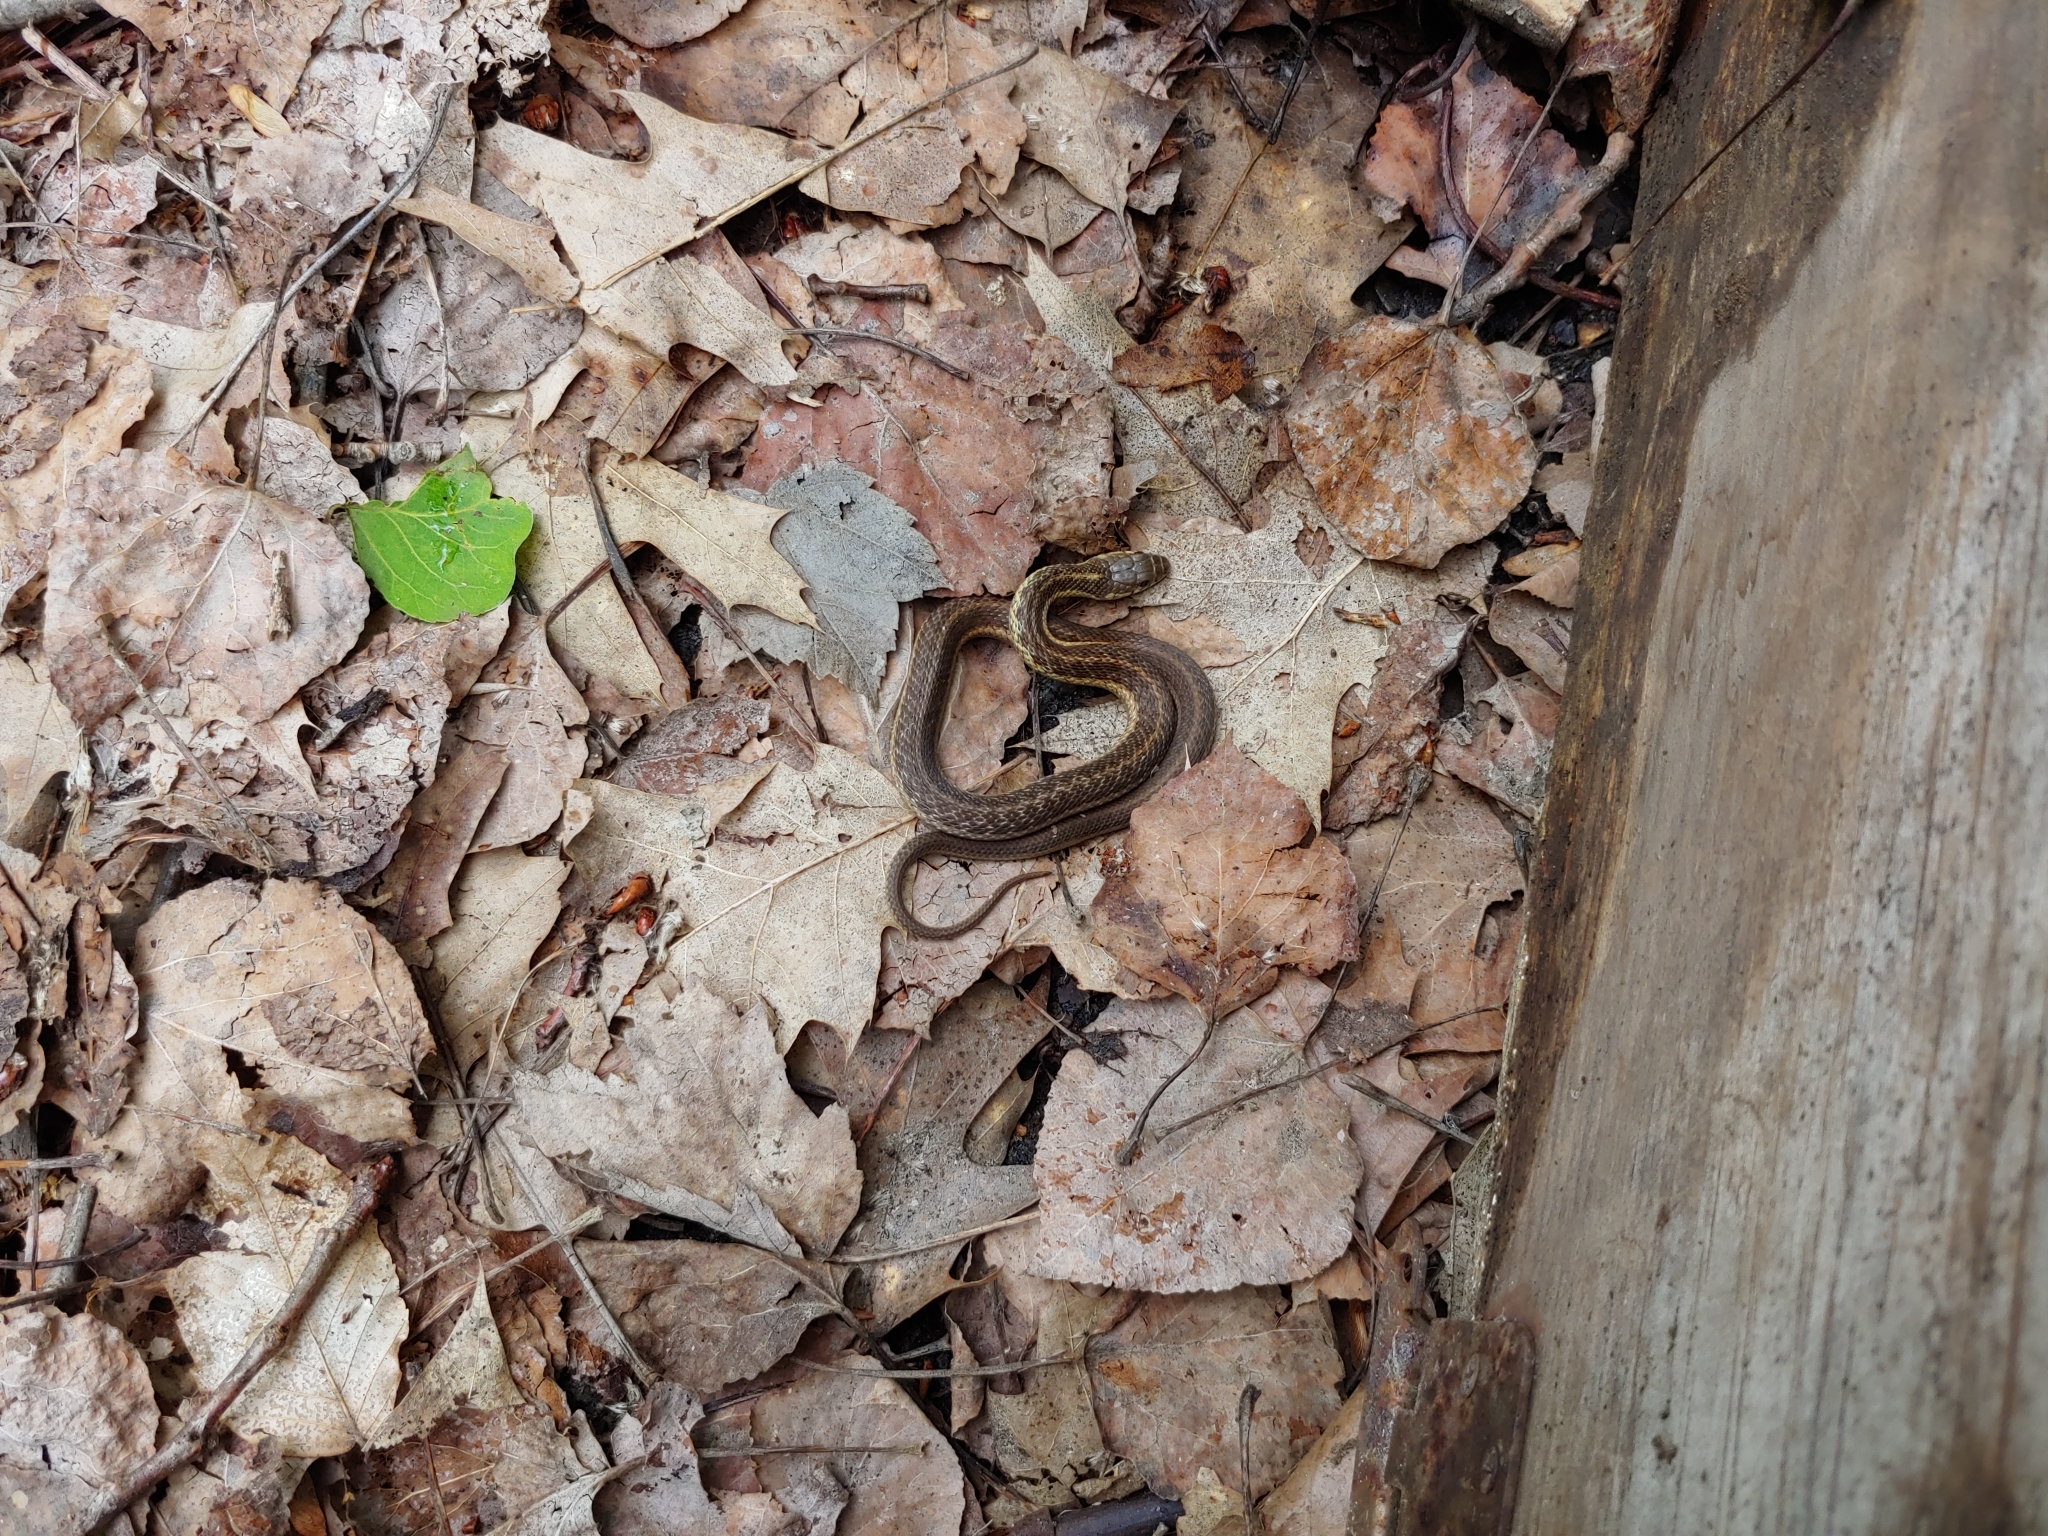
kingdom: Animalia
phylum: Chordata
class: Squamata
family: Colubridae
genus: Thamnophis
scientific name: Thamnophis sirtalis
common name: Common garter snake
